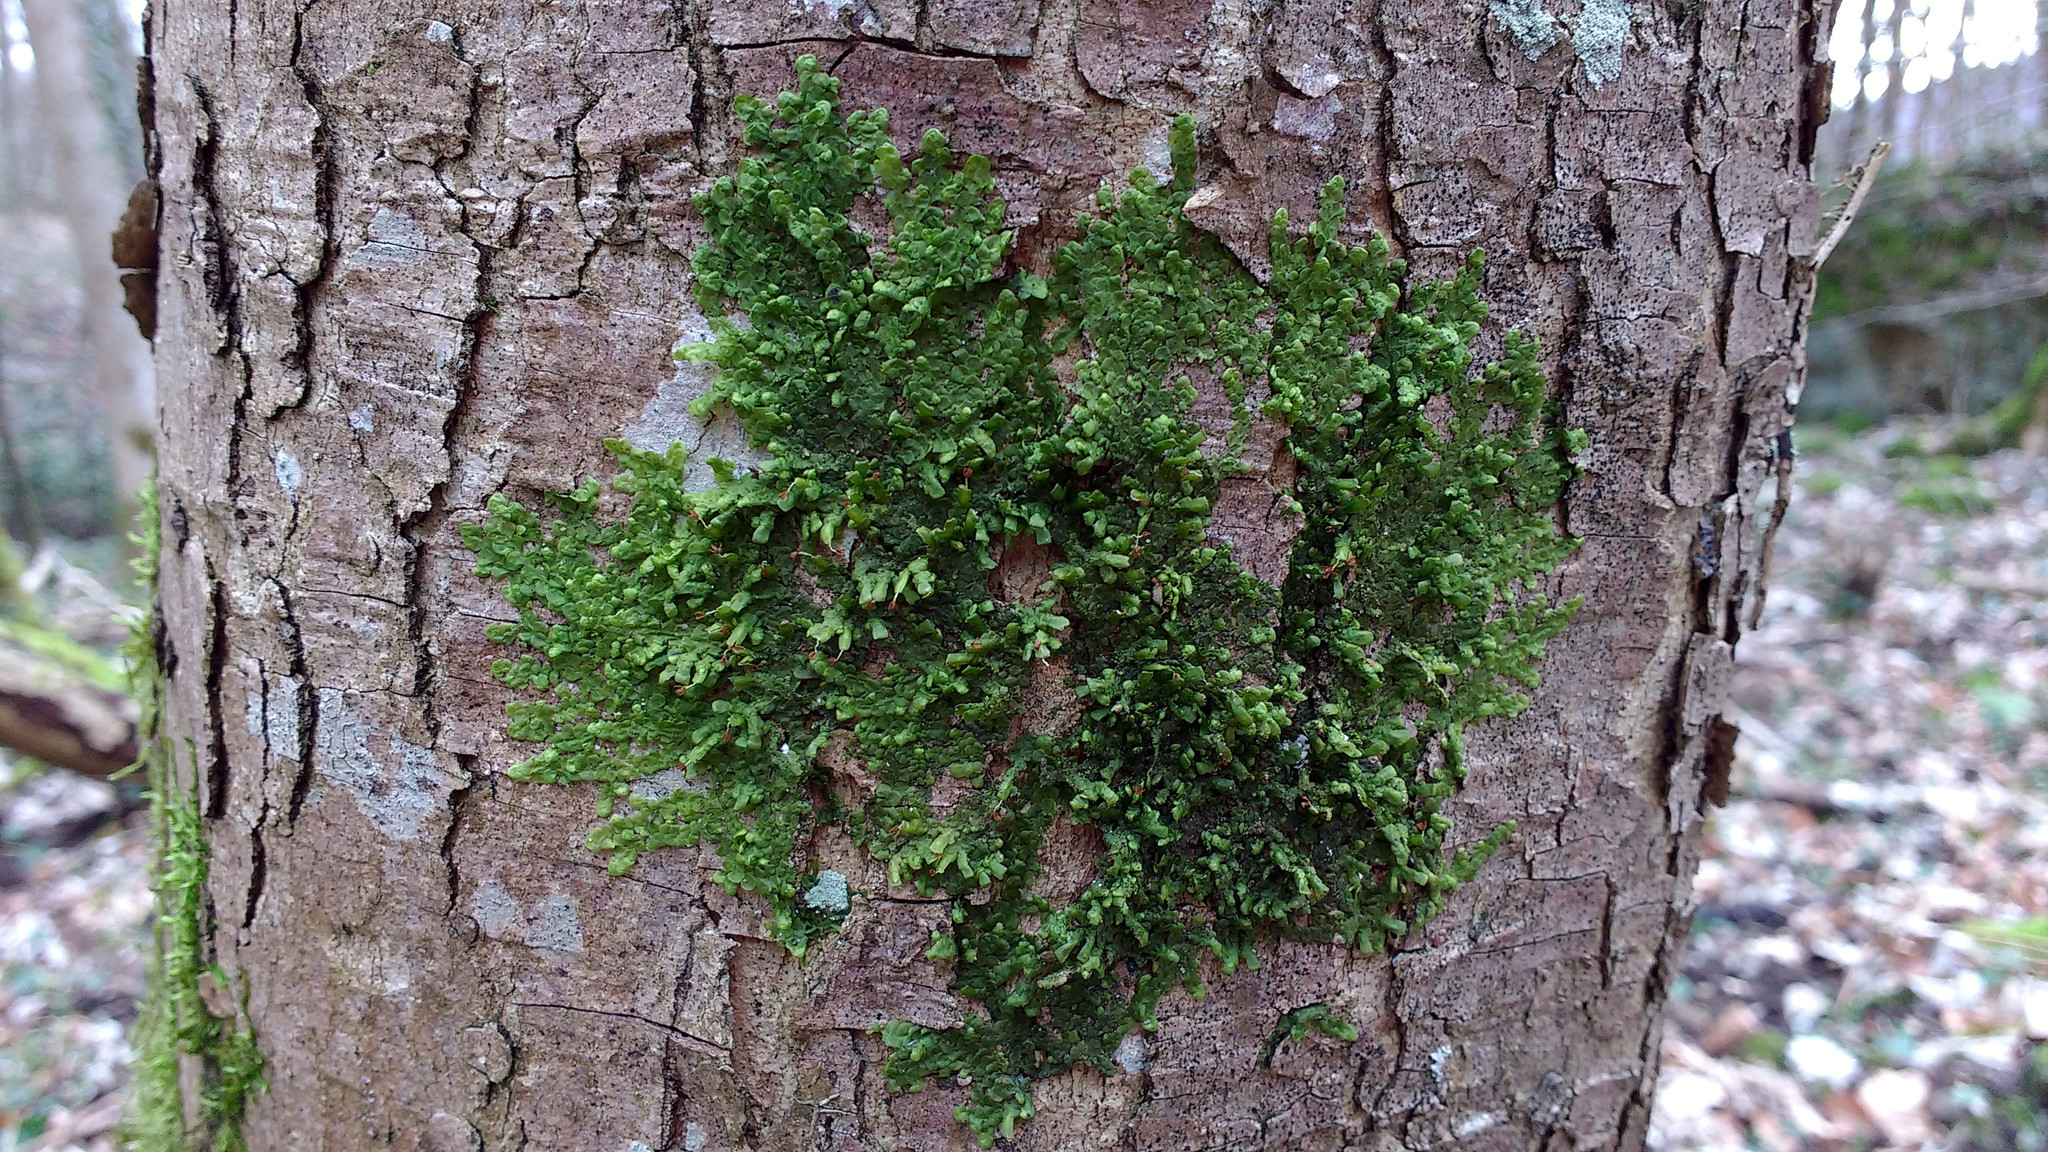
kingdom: Plantae
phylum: Marchantiophyta
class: Jungermanniopsida
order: Porellales
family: Radulaceae
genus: Radula
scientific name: Radula complanata
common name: Flat-leaved scalewort
